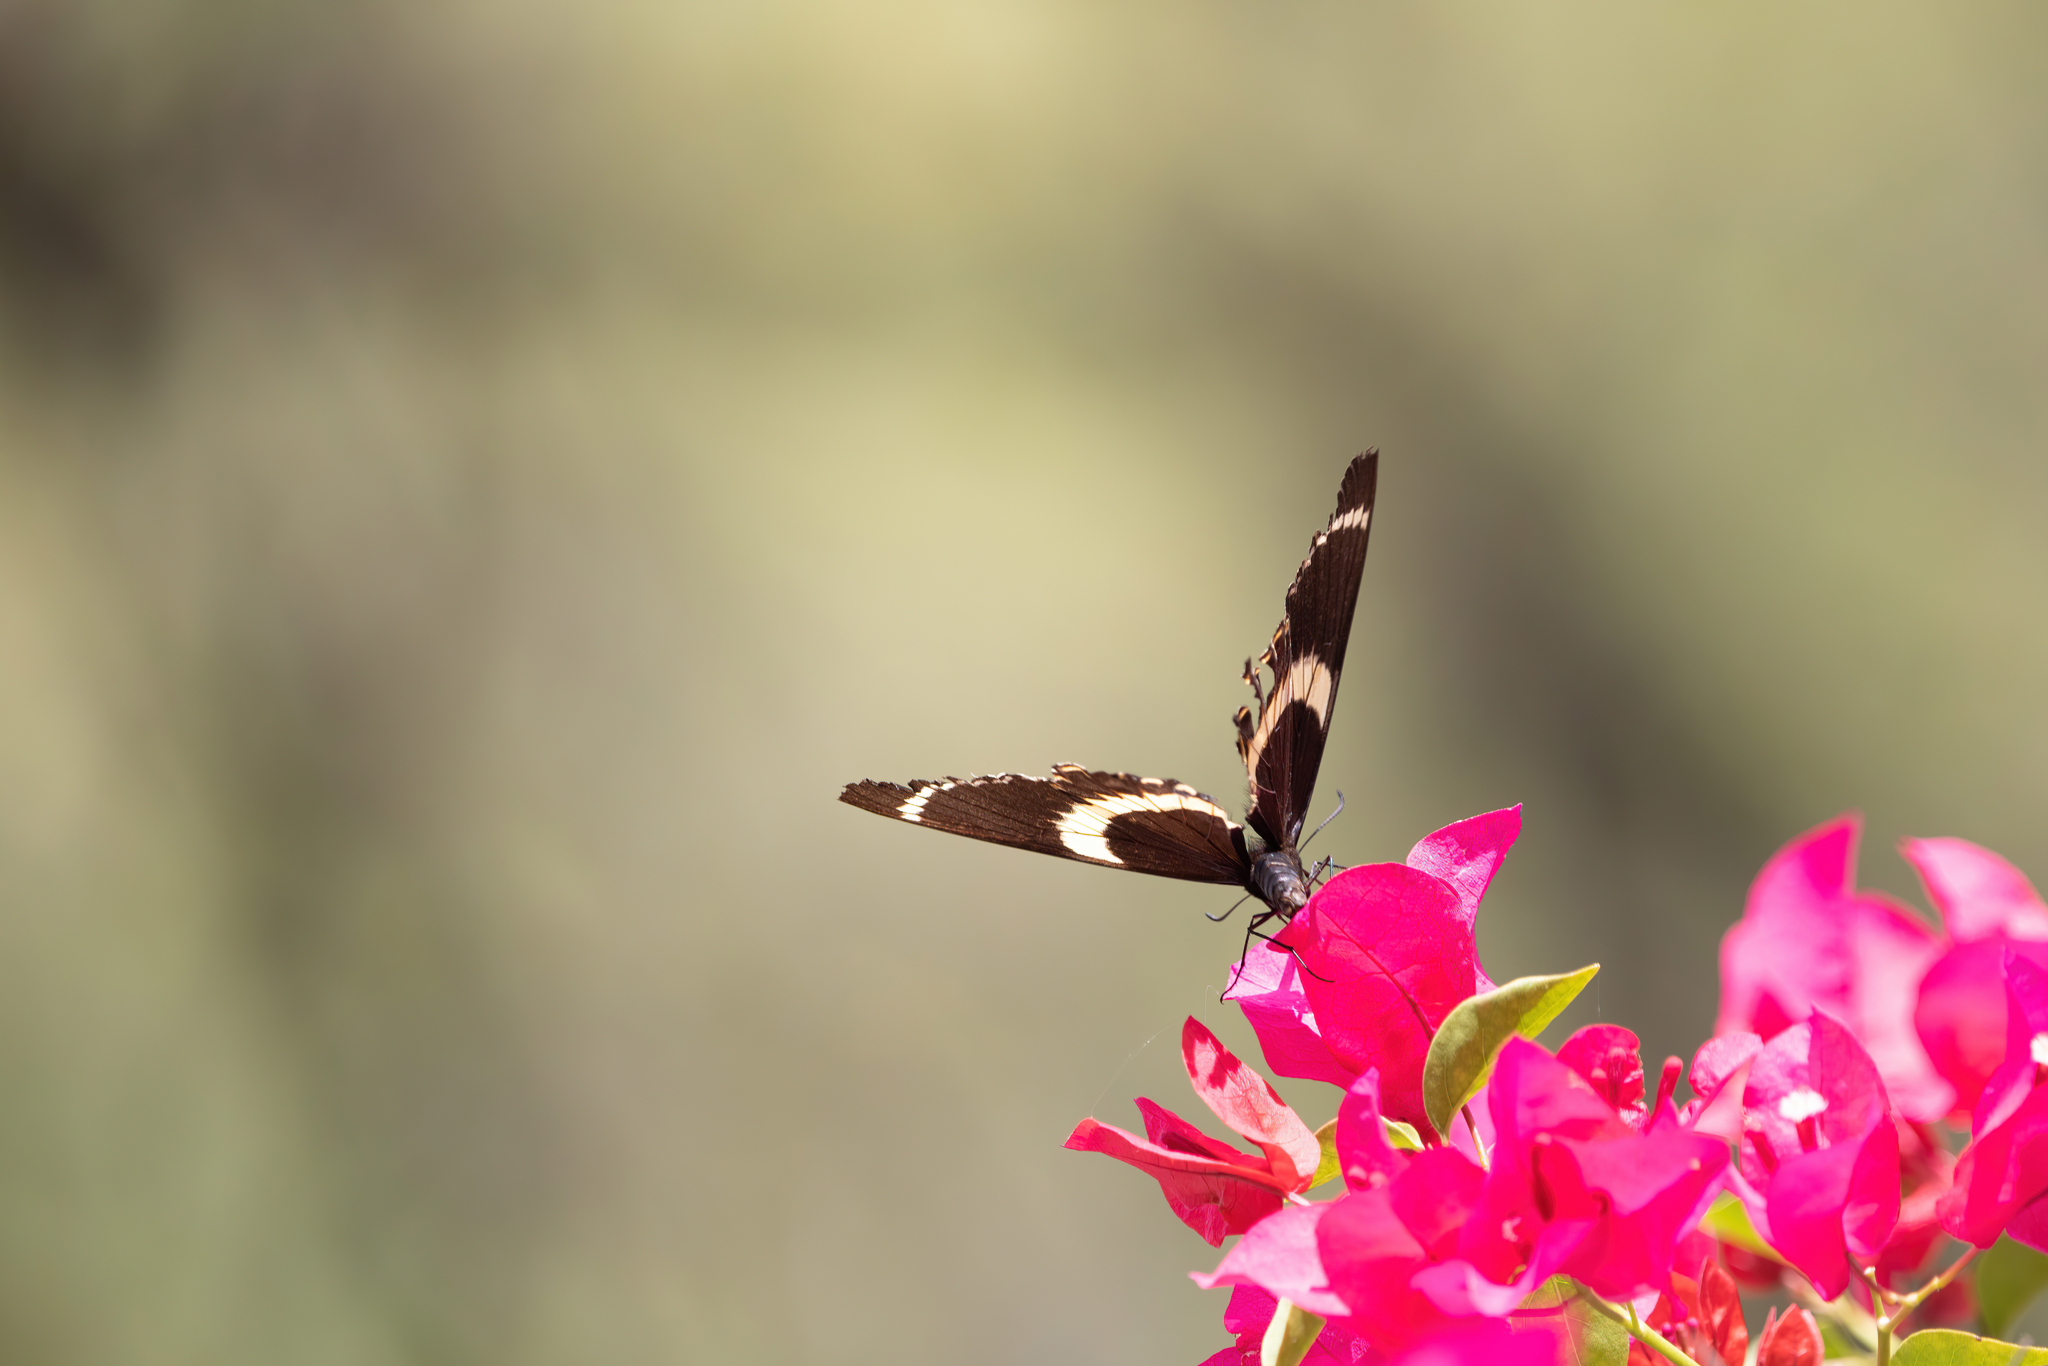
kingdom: Animalia
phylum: Arthropoda
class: Insecta
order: Lepidoptera
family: Papilionidae
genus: Papilio
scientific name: Papilio garamas
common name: Magnificent swallowtail
